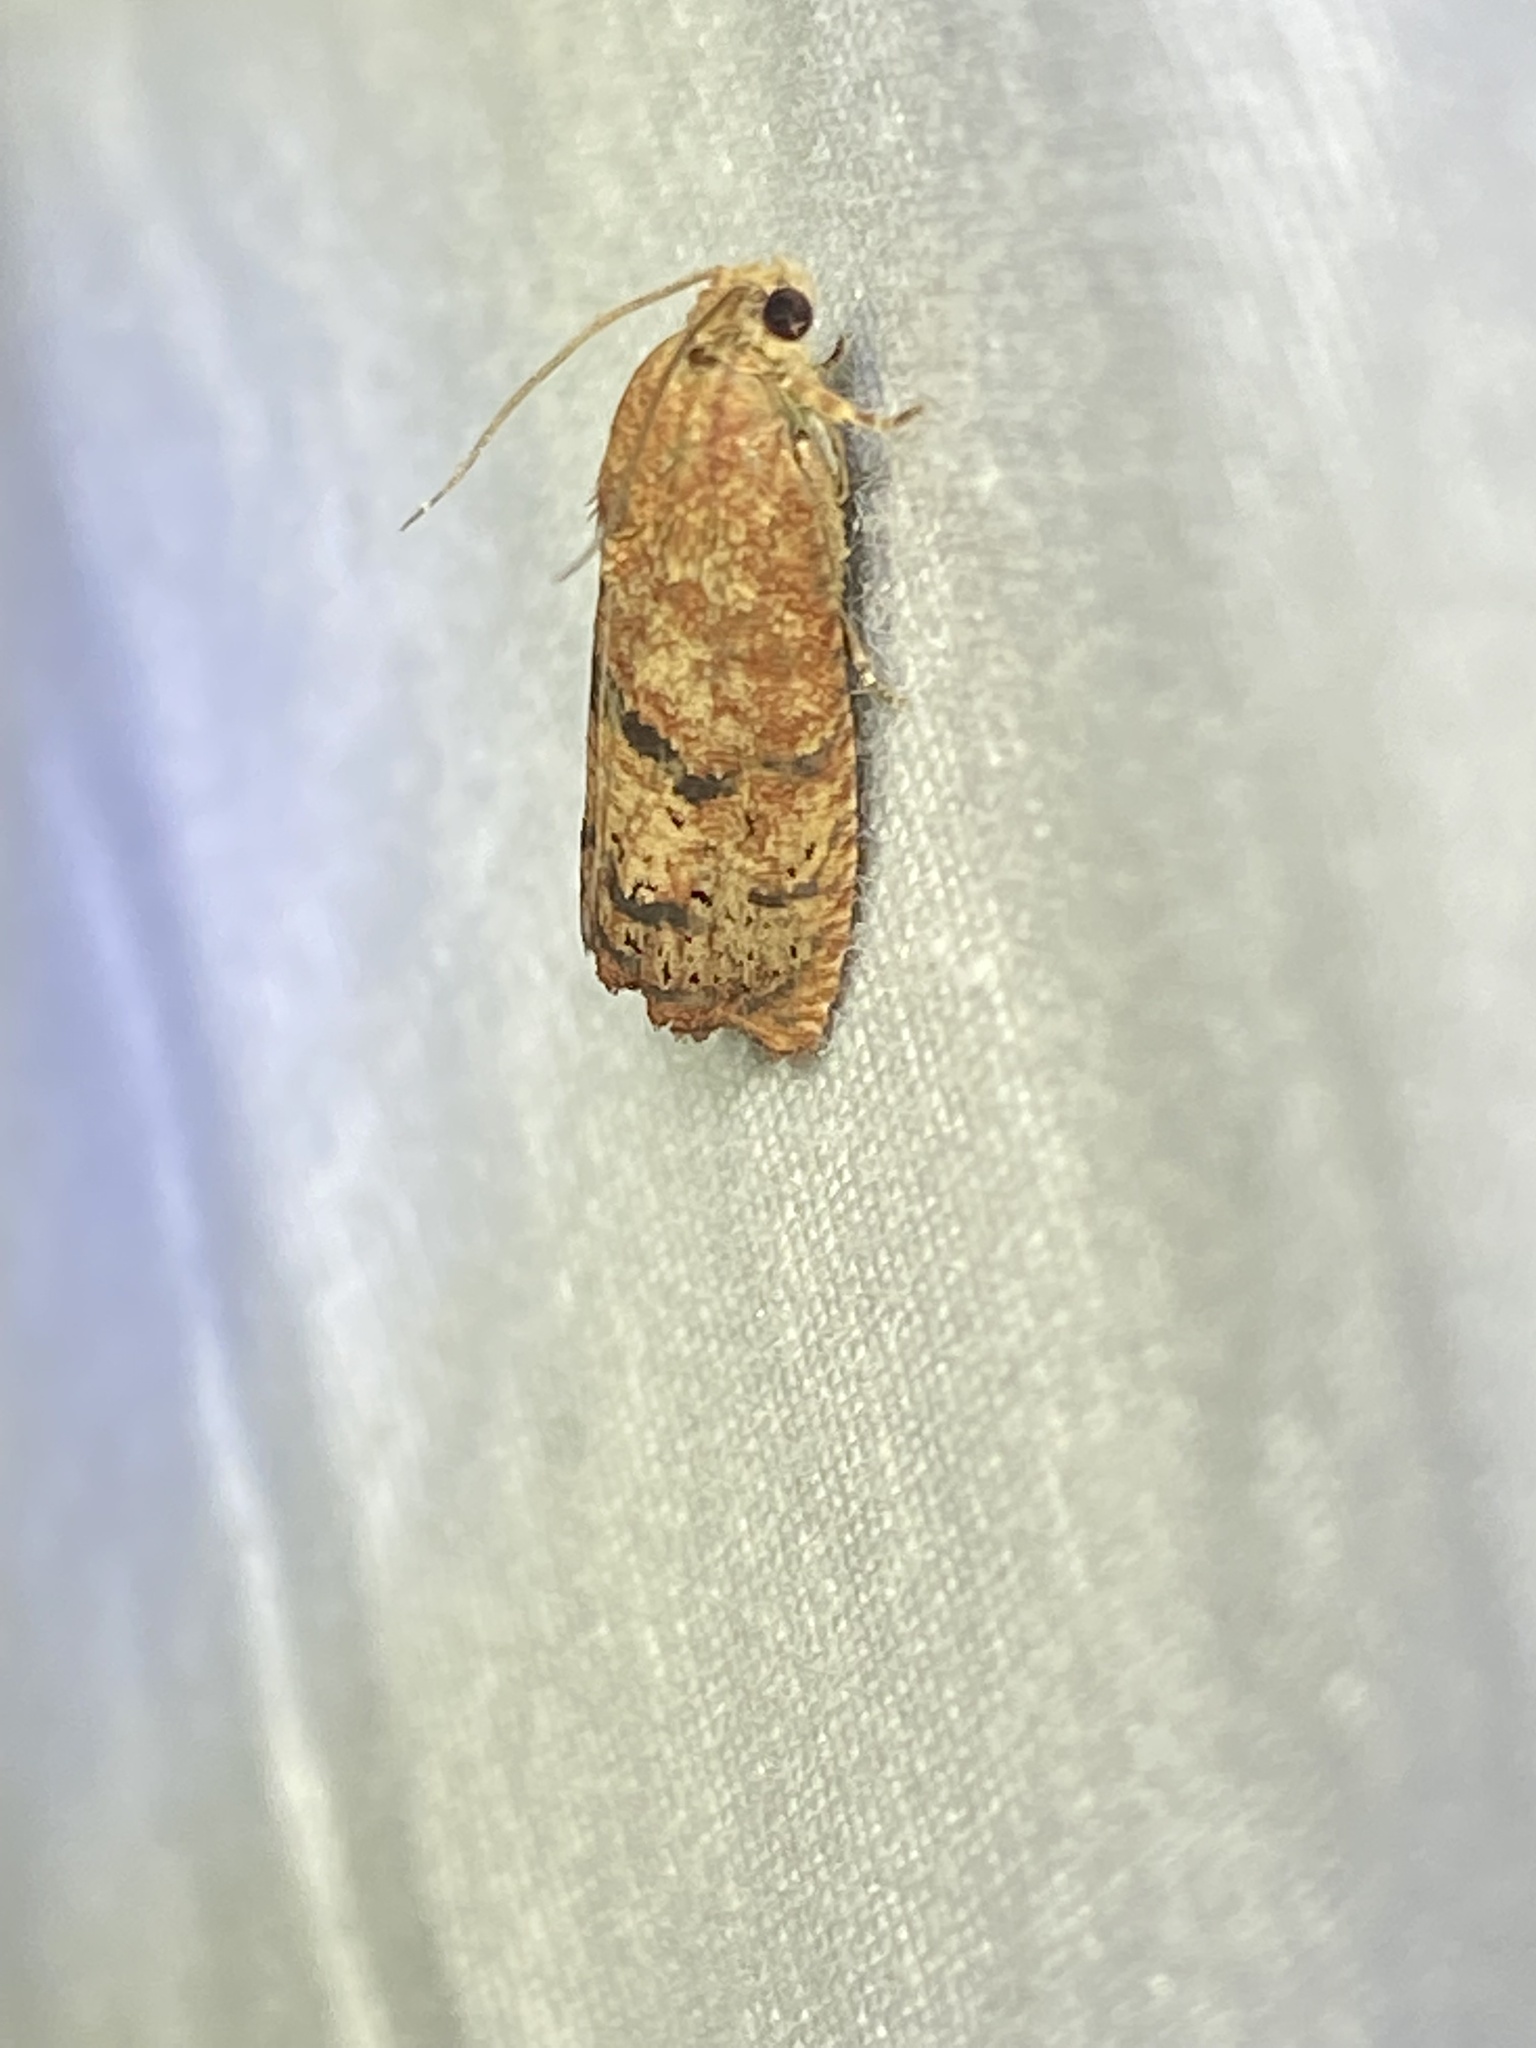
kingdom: Animalia
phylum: Arthropoda
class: Insecta
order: Lepidoptera
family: Tortricidae
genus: Cydia
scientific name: Cydia latiferreana
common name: Filbertworm moth
